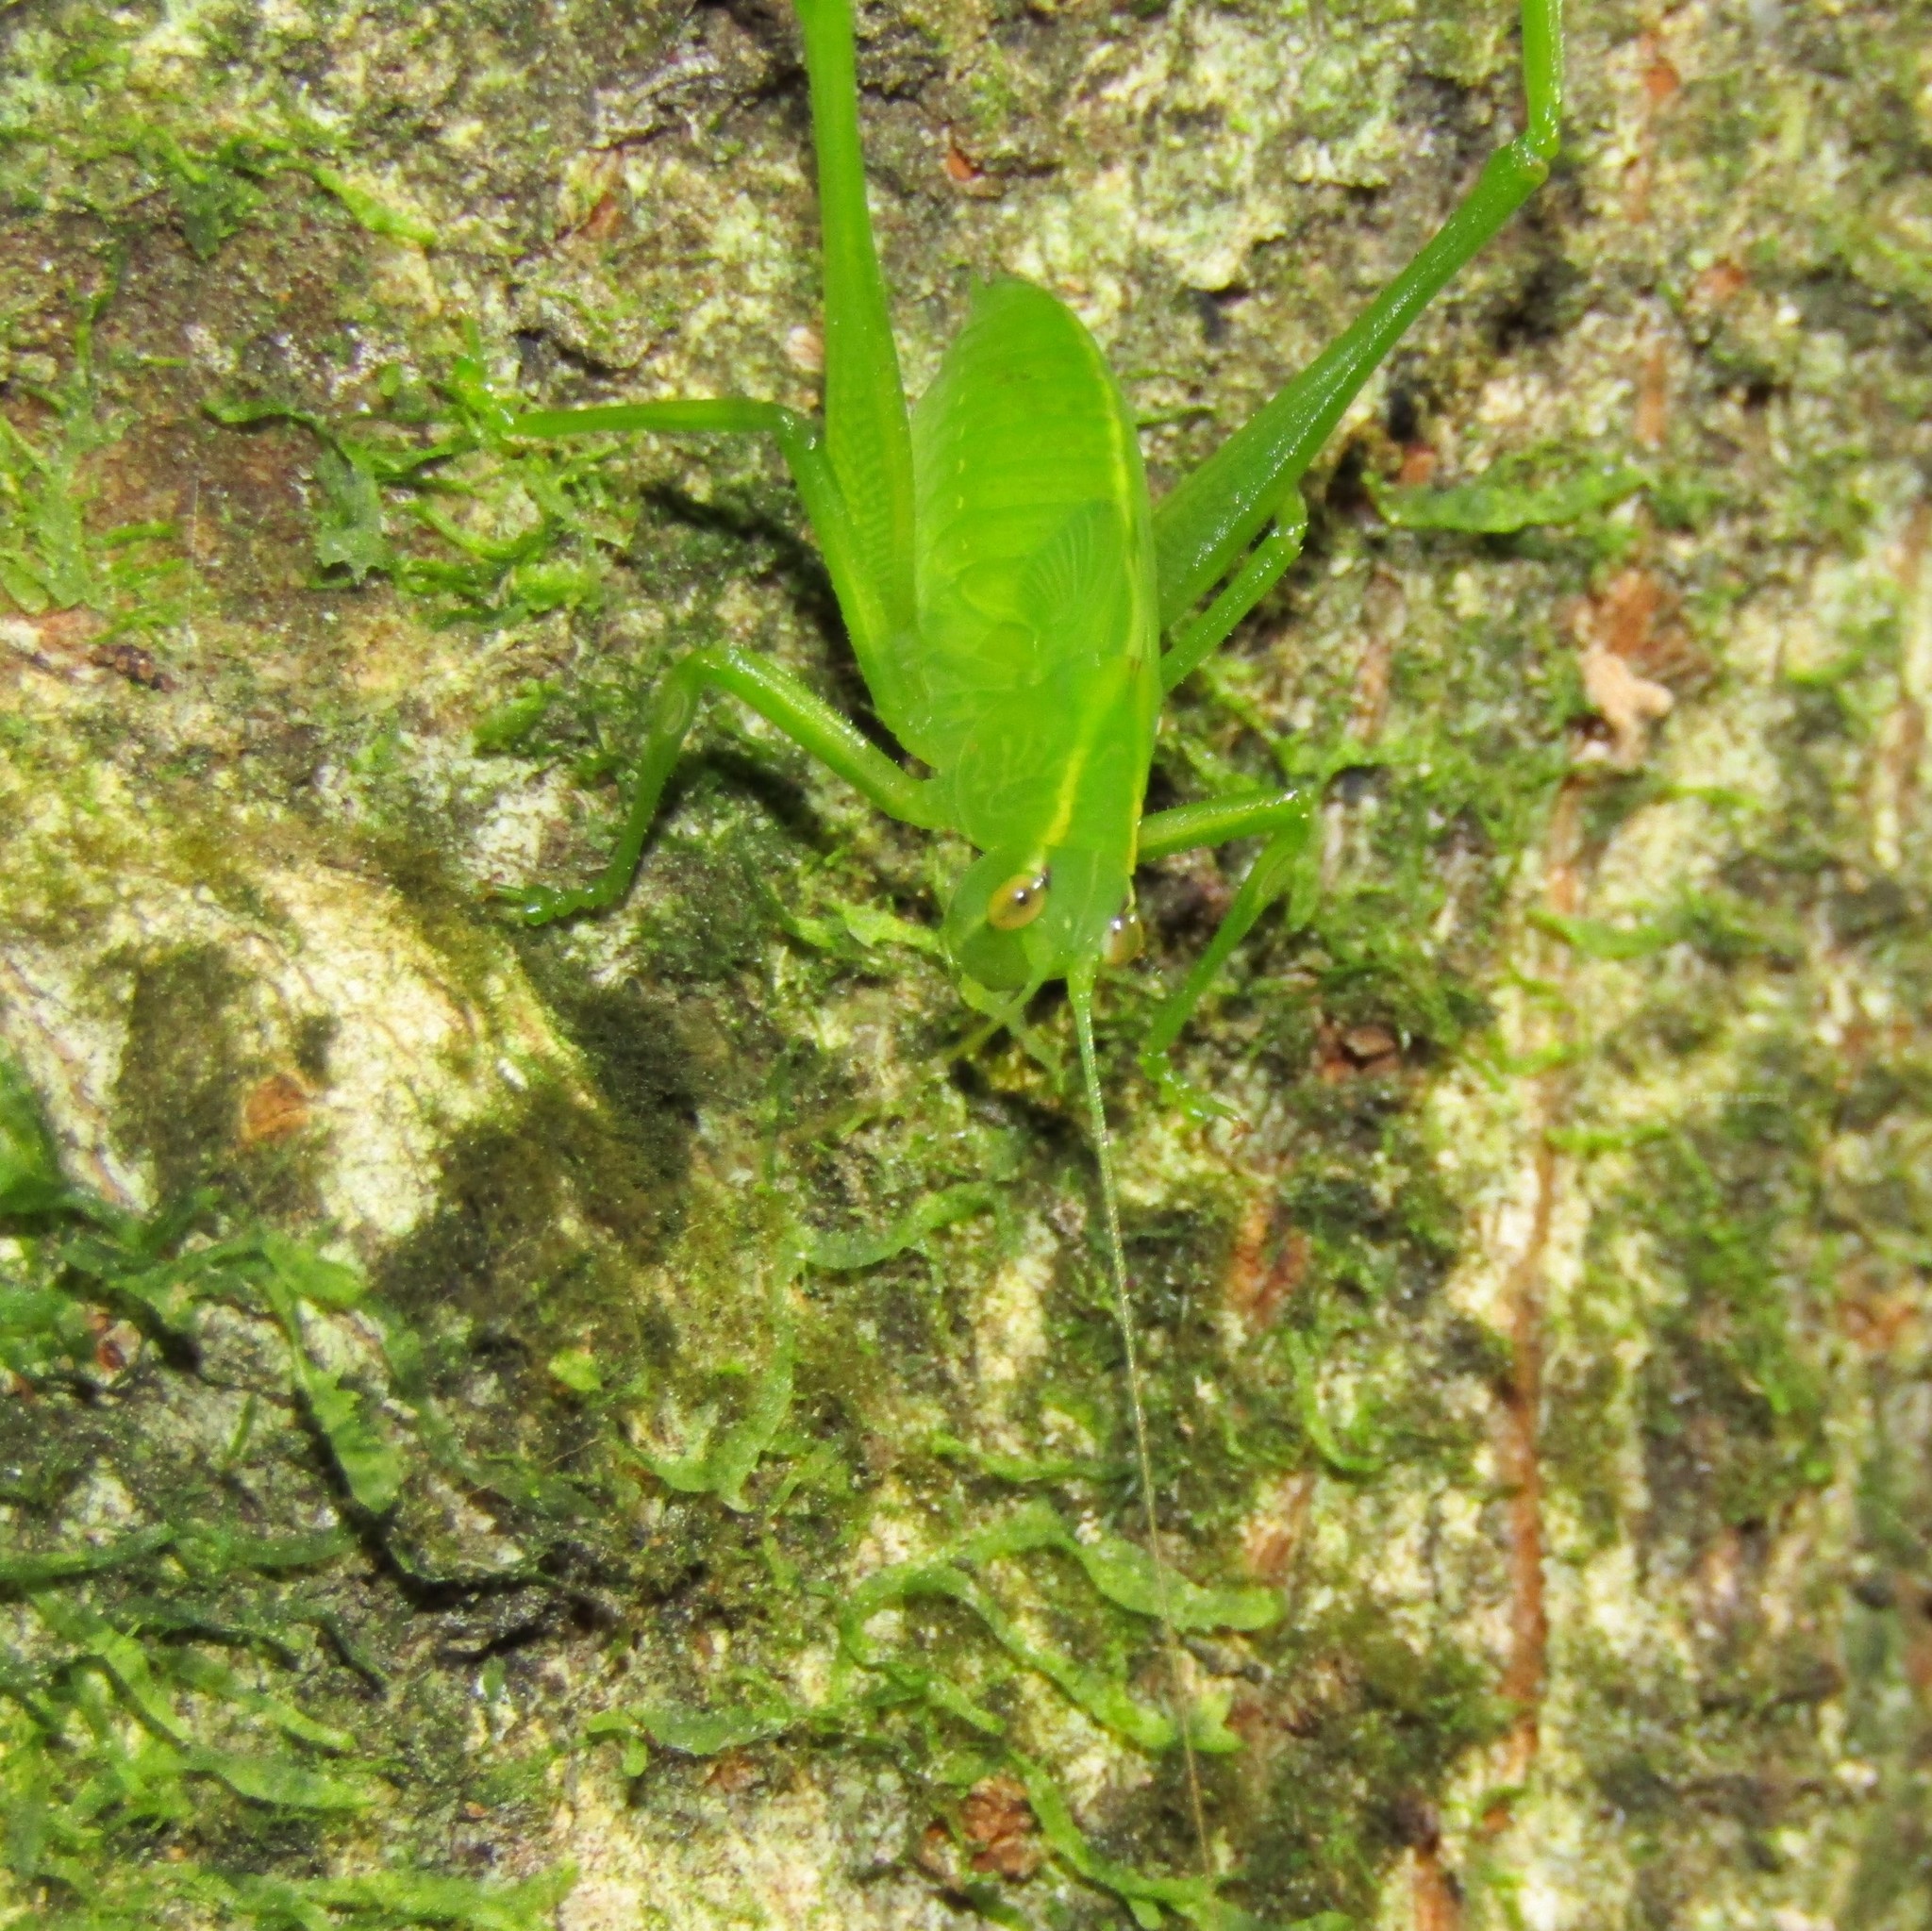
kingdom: Animalia
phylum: Arthropoda
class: Insecta
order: Orthoptera
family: Tettigoniidae
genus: Caedicia
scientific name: Caedicia simplex
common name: Common garden katydid
